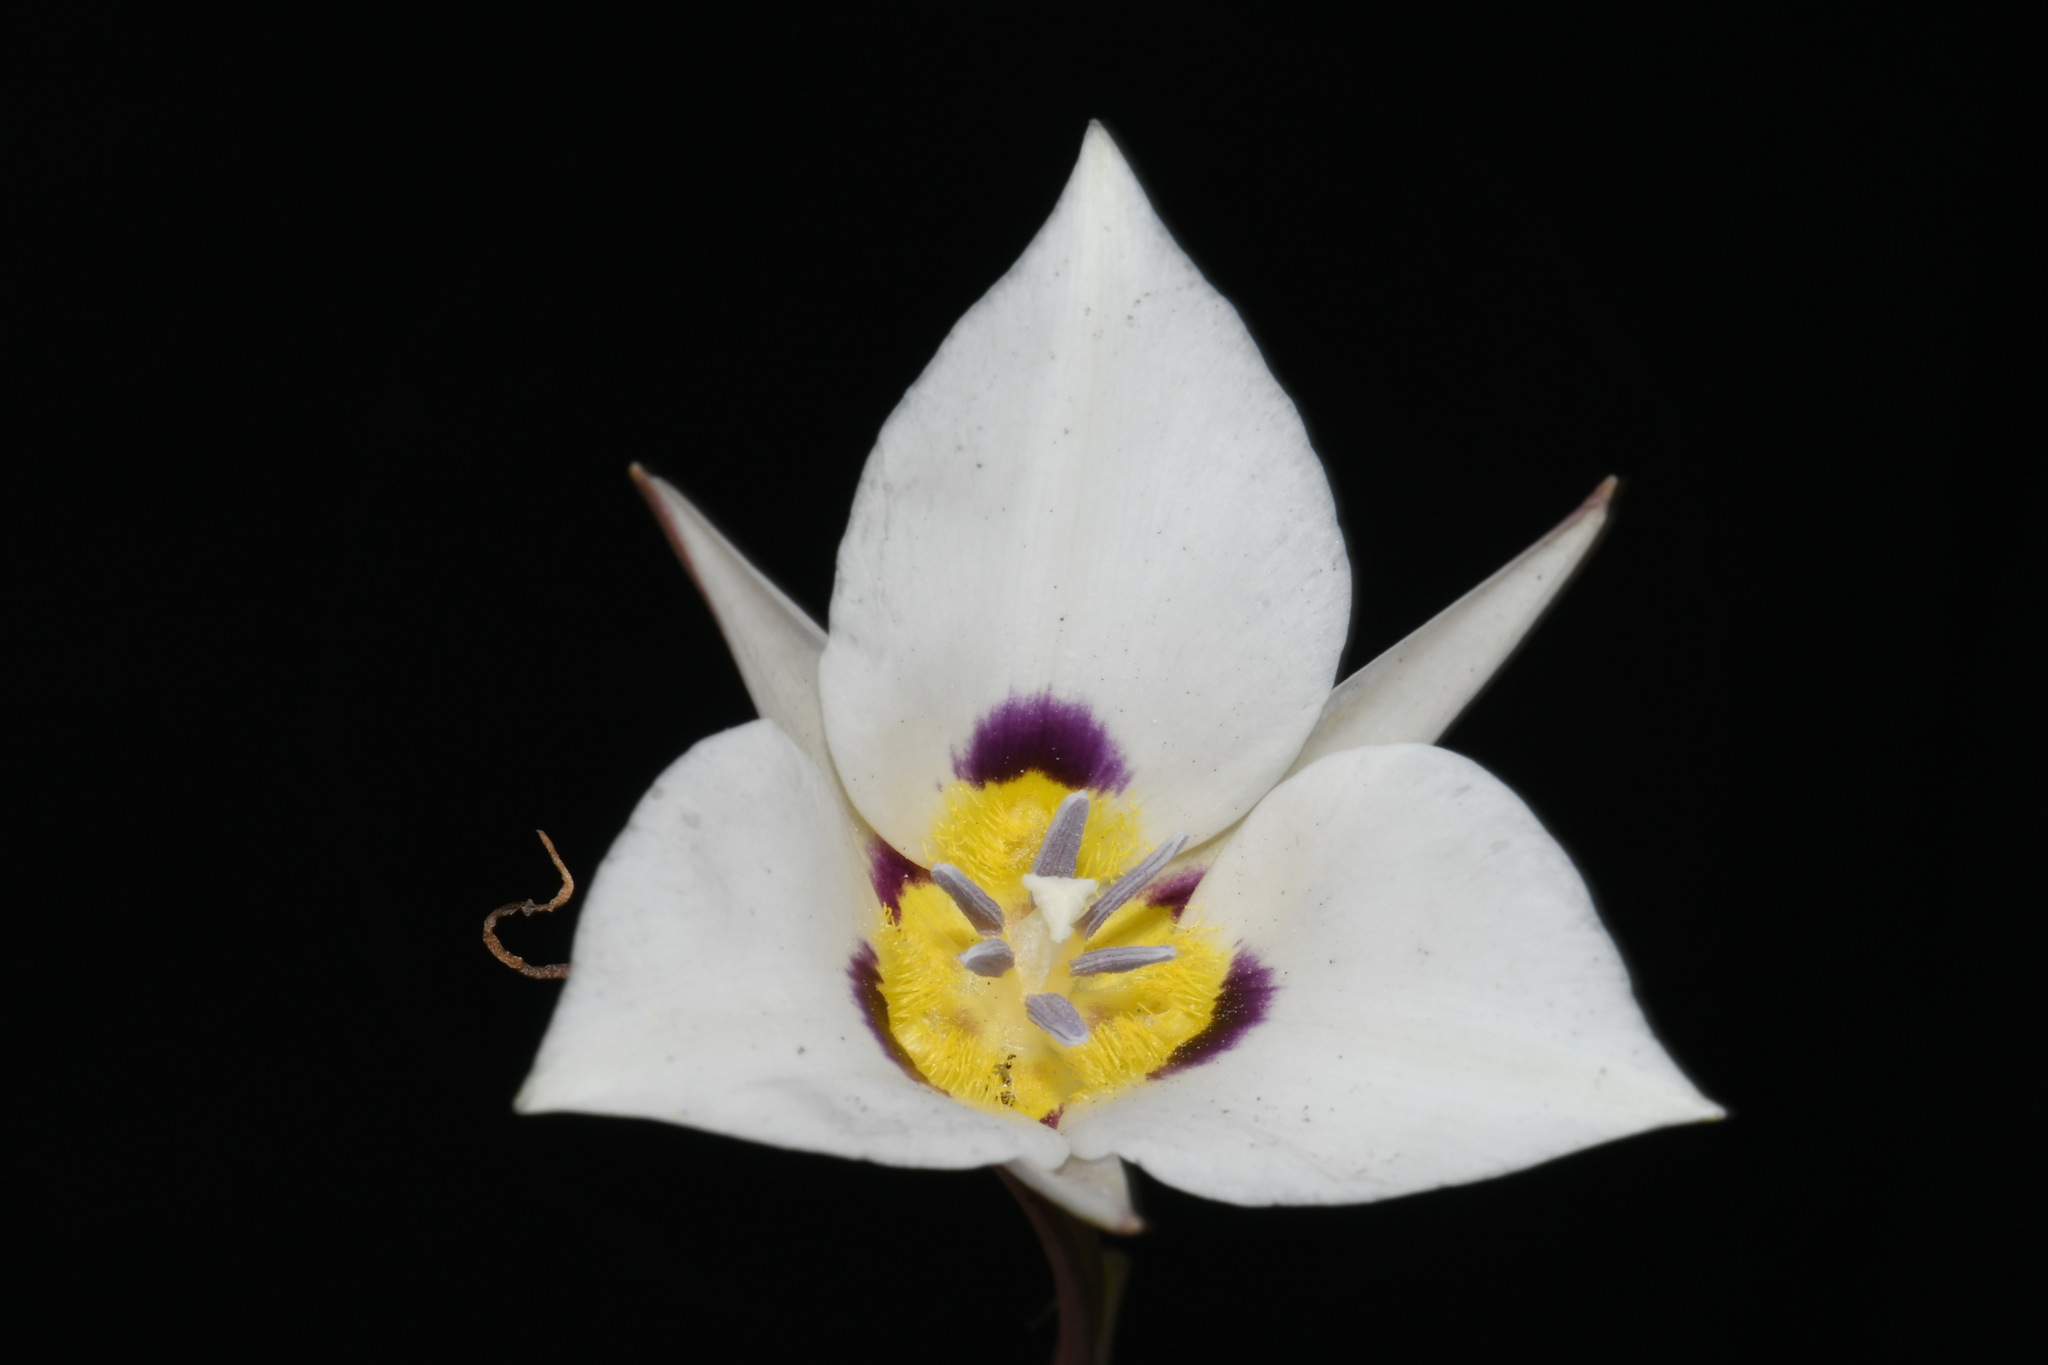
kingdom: Plantae
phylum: Tracheophyta
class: Liliopsida
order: Liliales
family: Liliaceae
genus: Calochortus
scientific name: Calochortus bruneaunis
